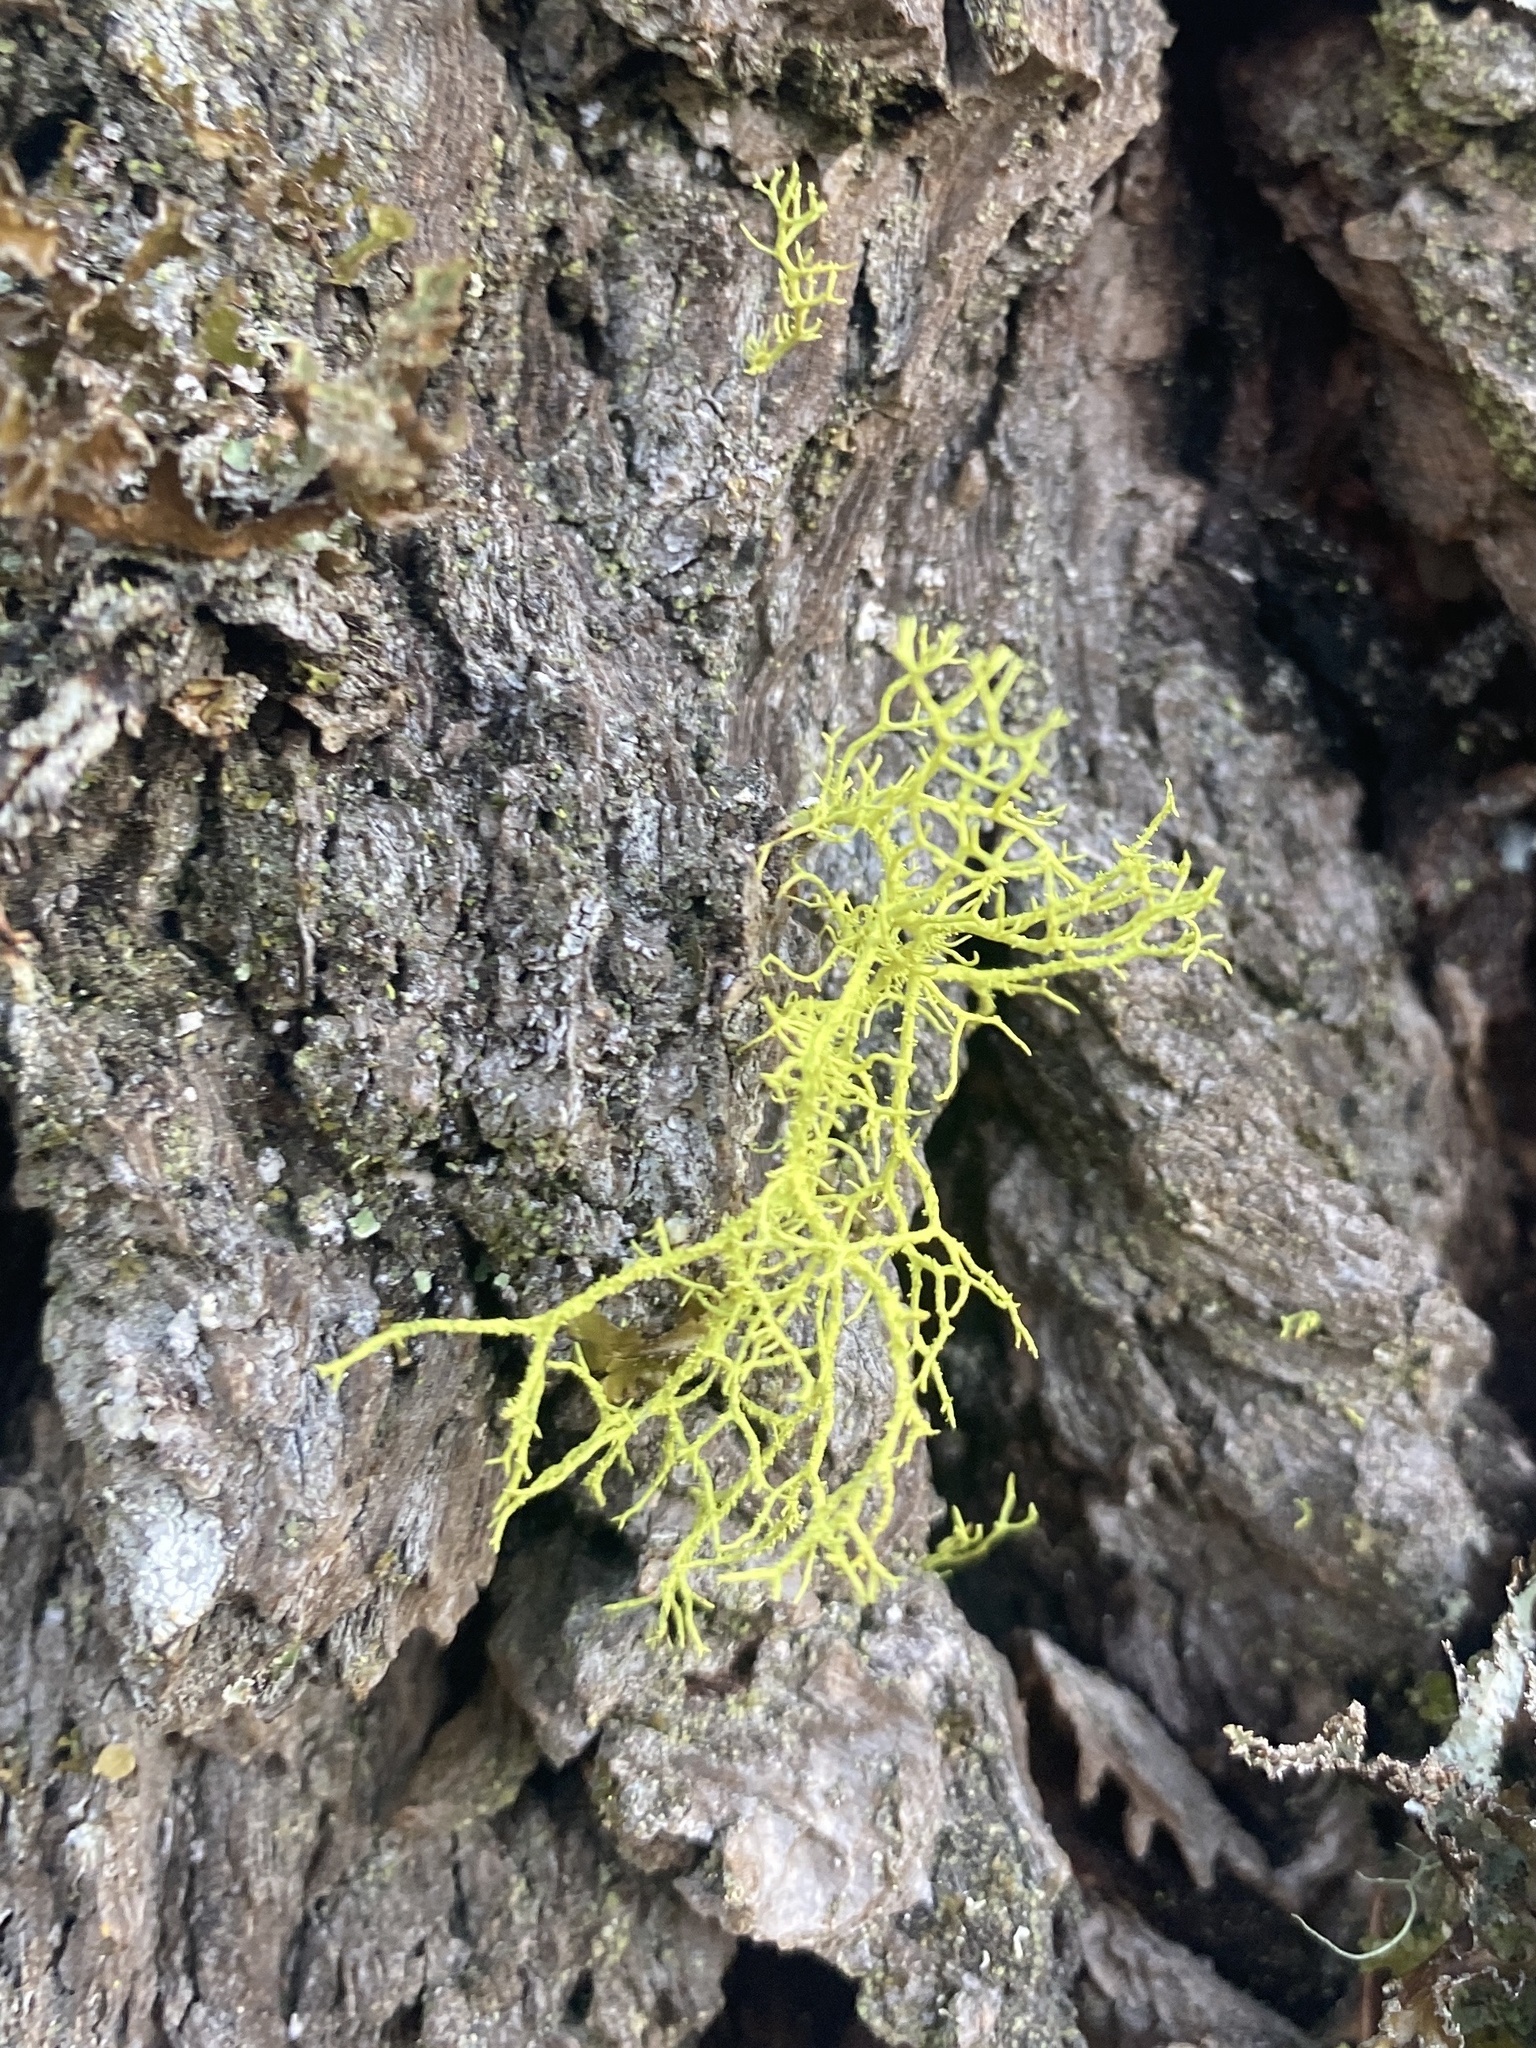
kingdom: Fungi
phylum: Ascomycota
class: Lecanoromycetes
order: Lecanorales
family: Parmeliaceae
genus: Letharia
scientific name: Letharia vulpina
